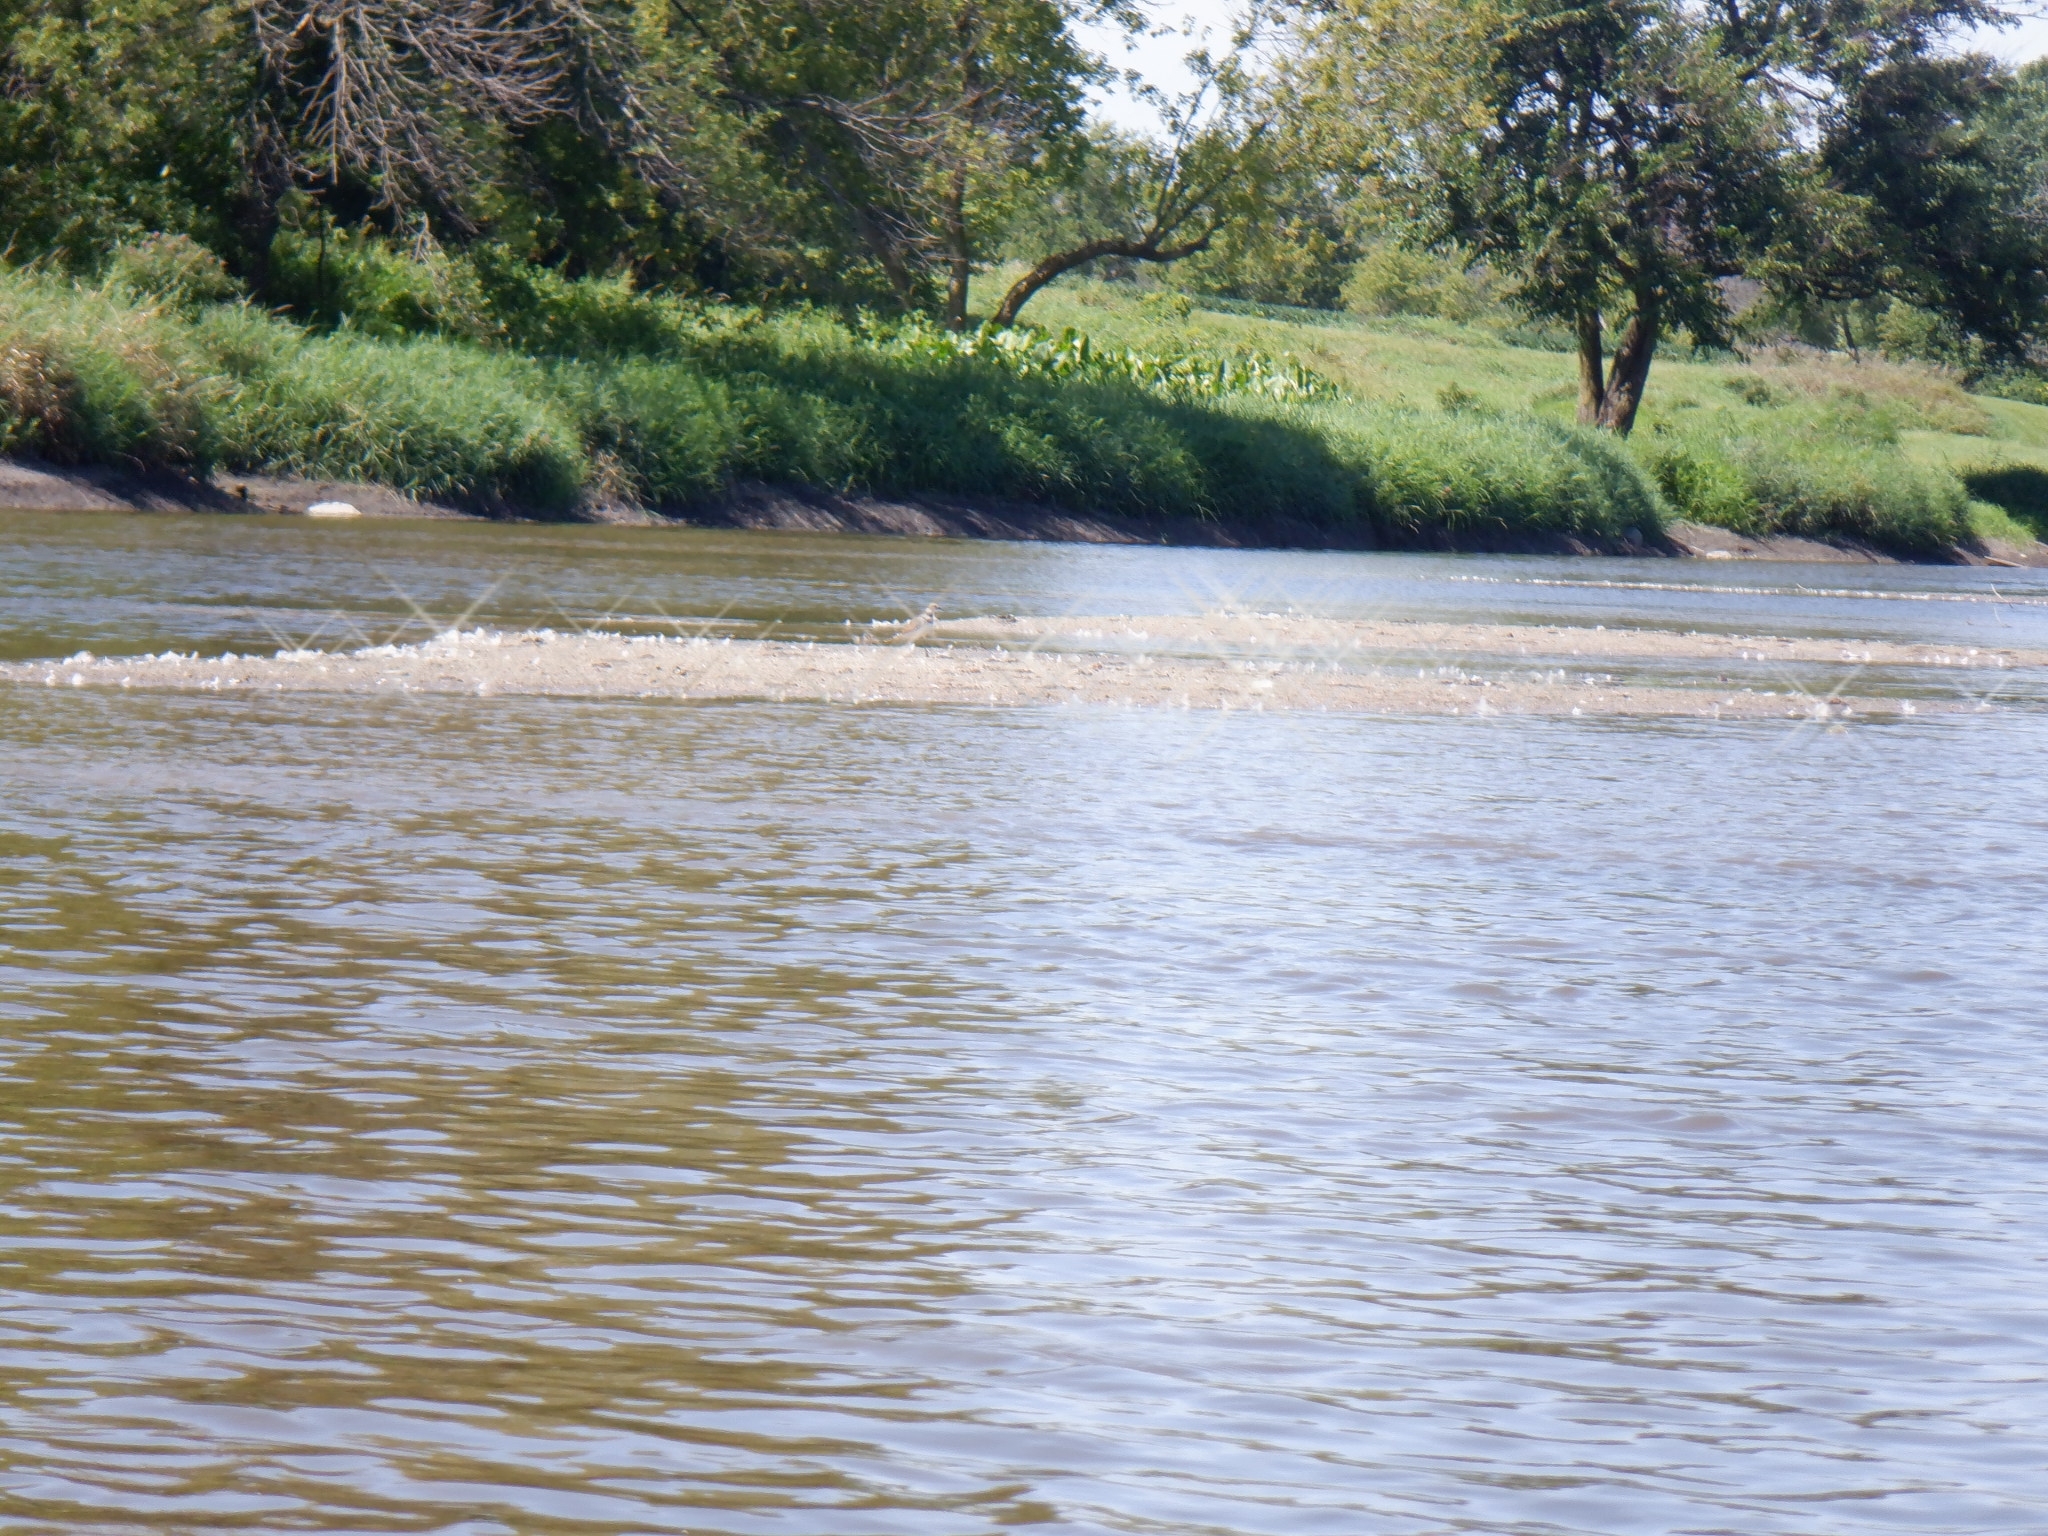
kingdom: Animalia
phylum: Chordata
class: Aves
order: Charadriiformes
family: Charadriidae
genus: Charadrius
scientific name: Charadrius vociferus
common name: Killdeer
